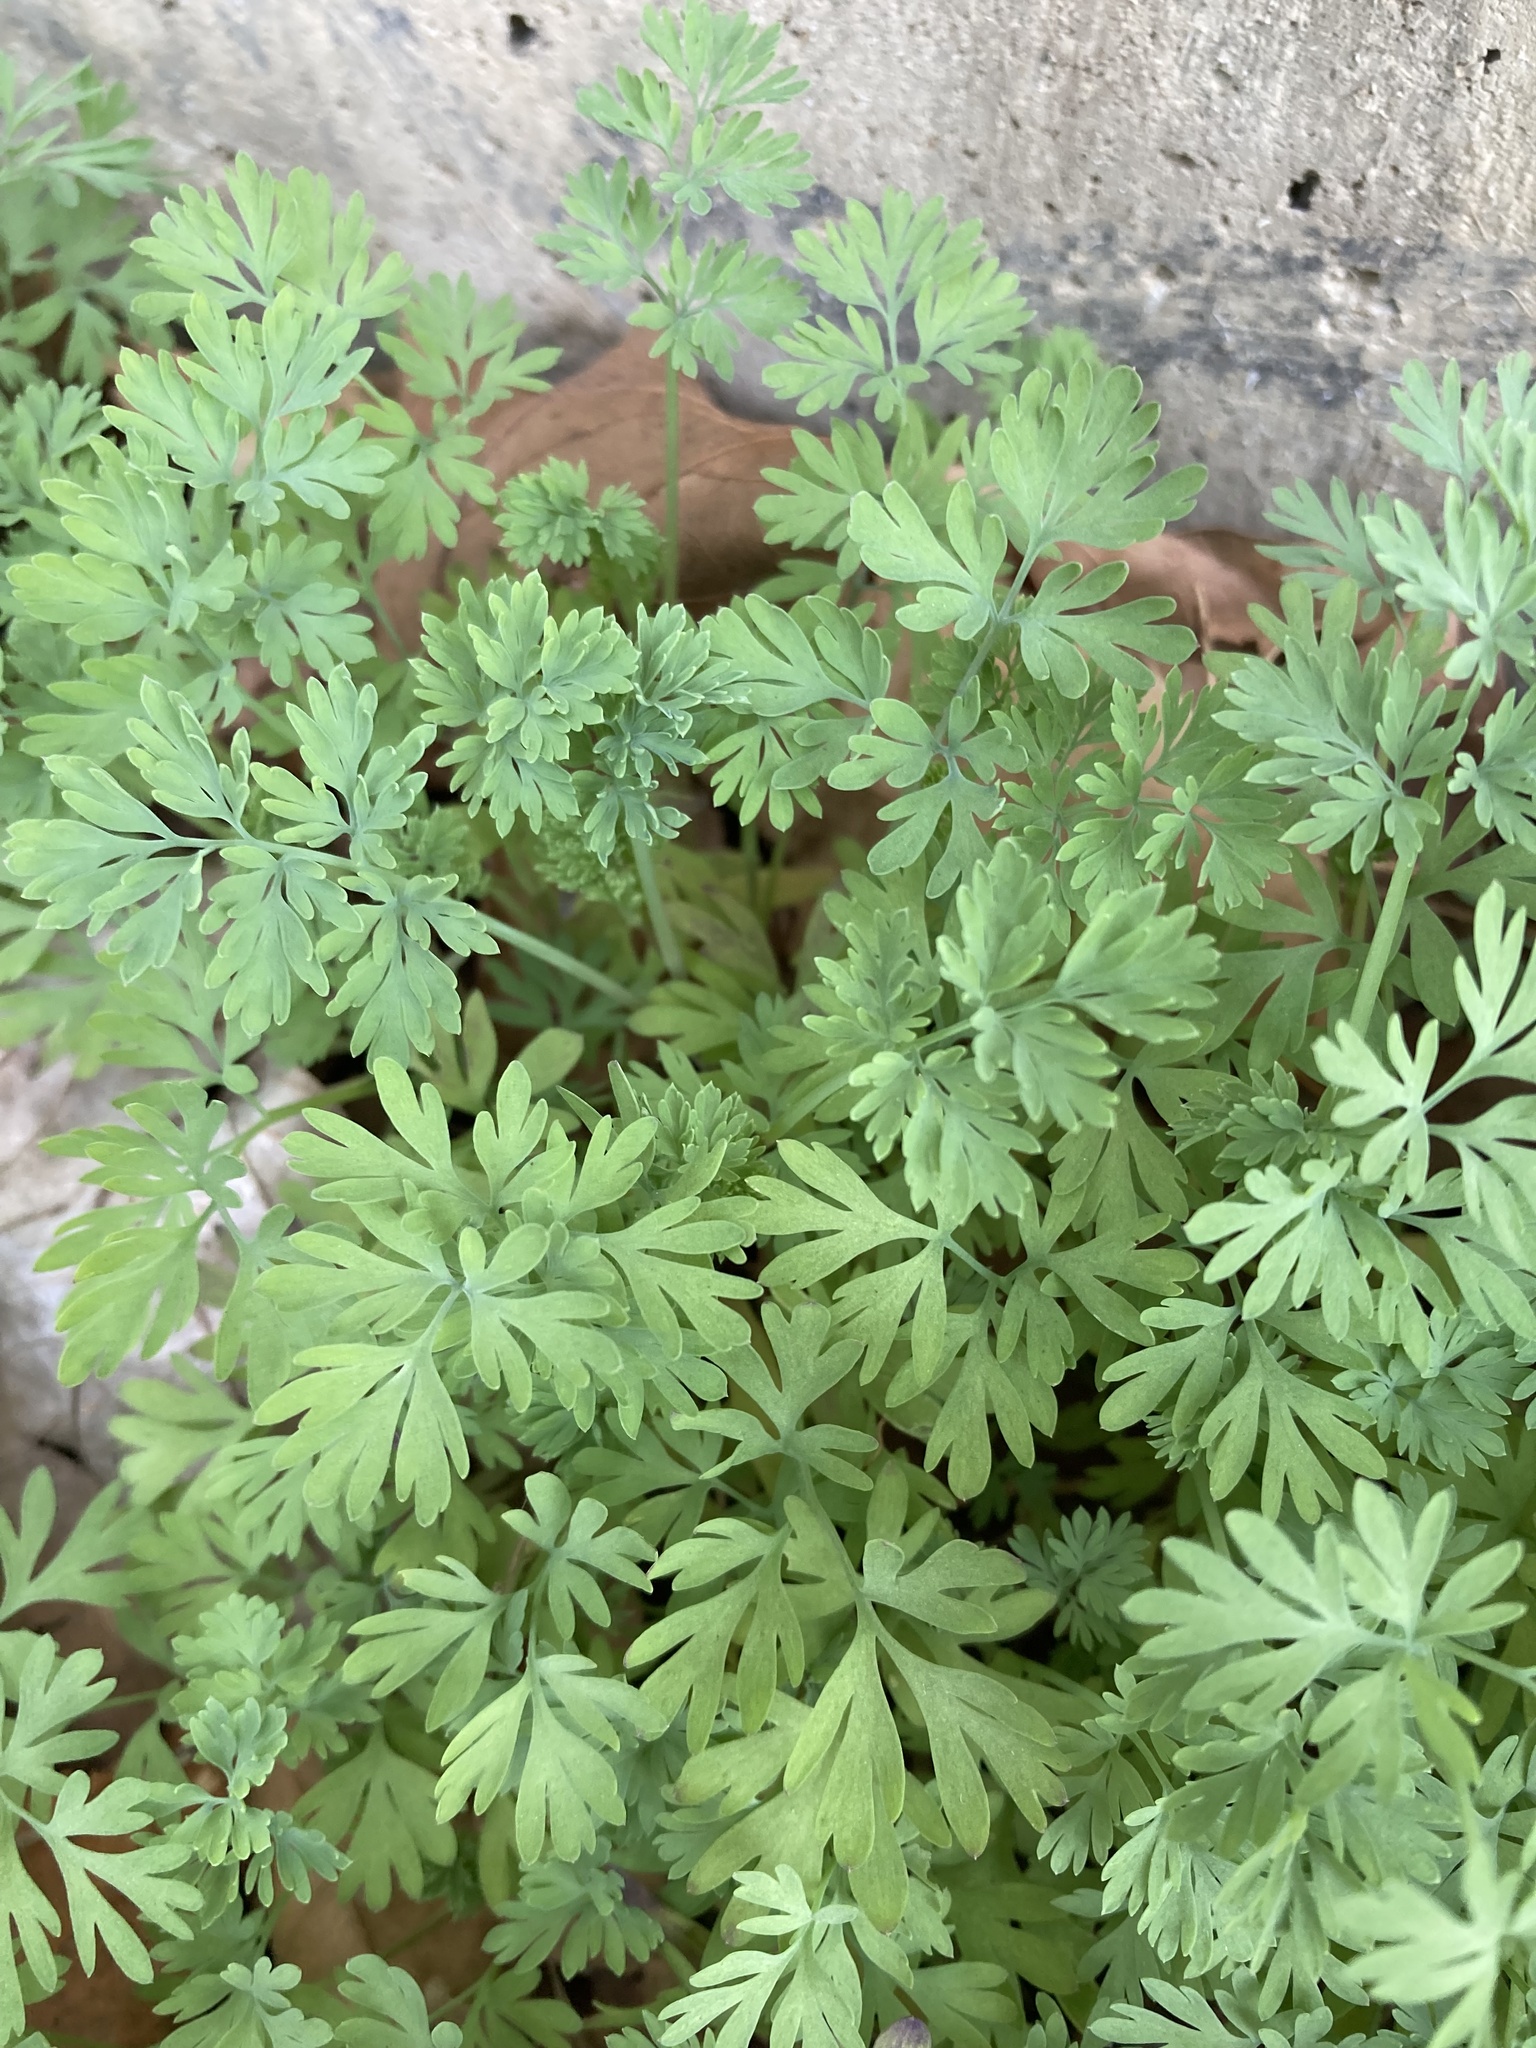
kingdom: Plantae
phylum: Tracheophyta
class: Magnoliopsida
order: Ranunculales
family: Papaveraceae
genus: Dicentra
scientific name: Dicentra formosa
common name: Bleeding-heart
